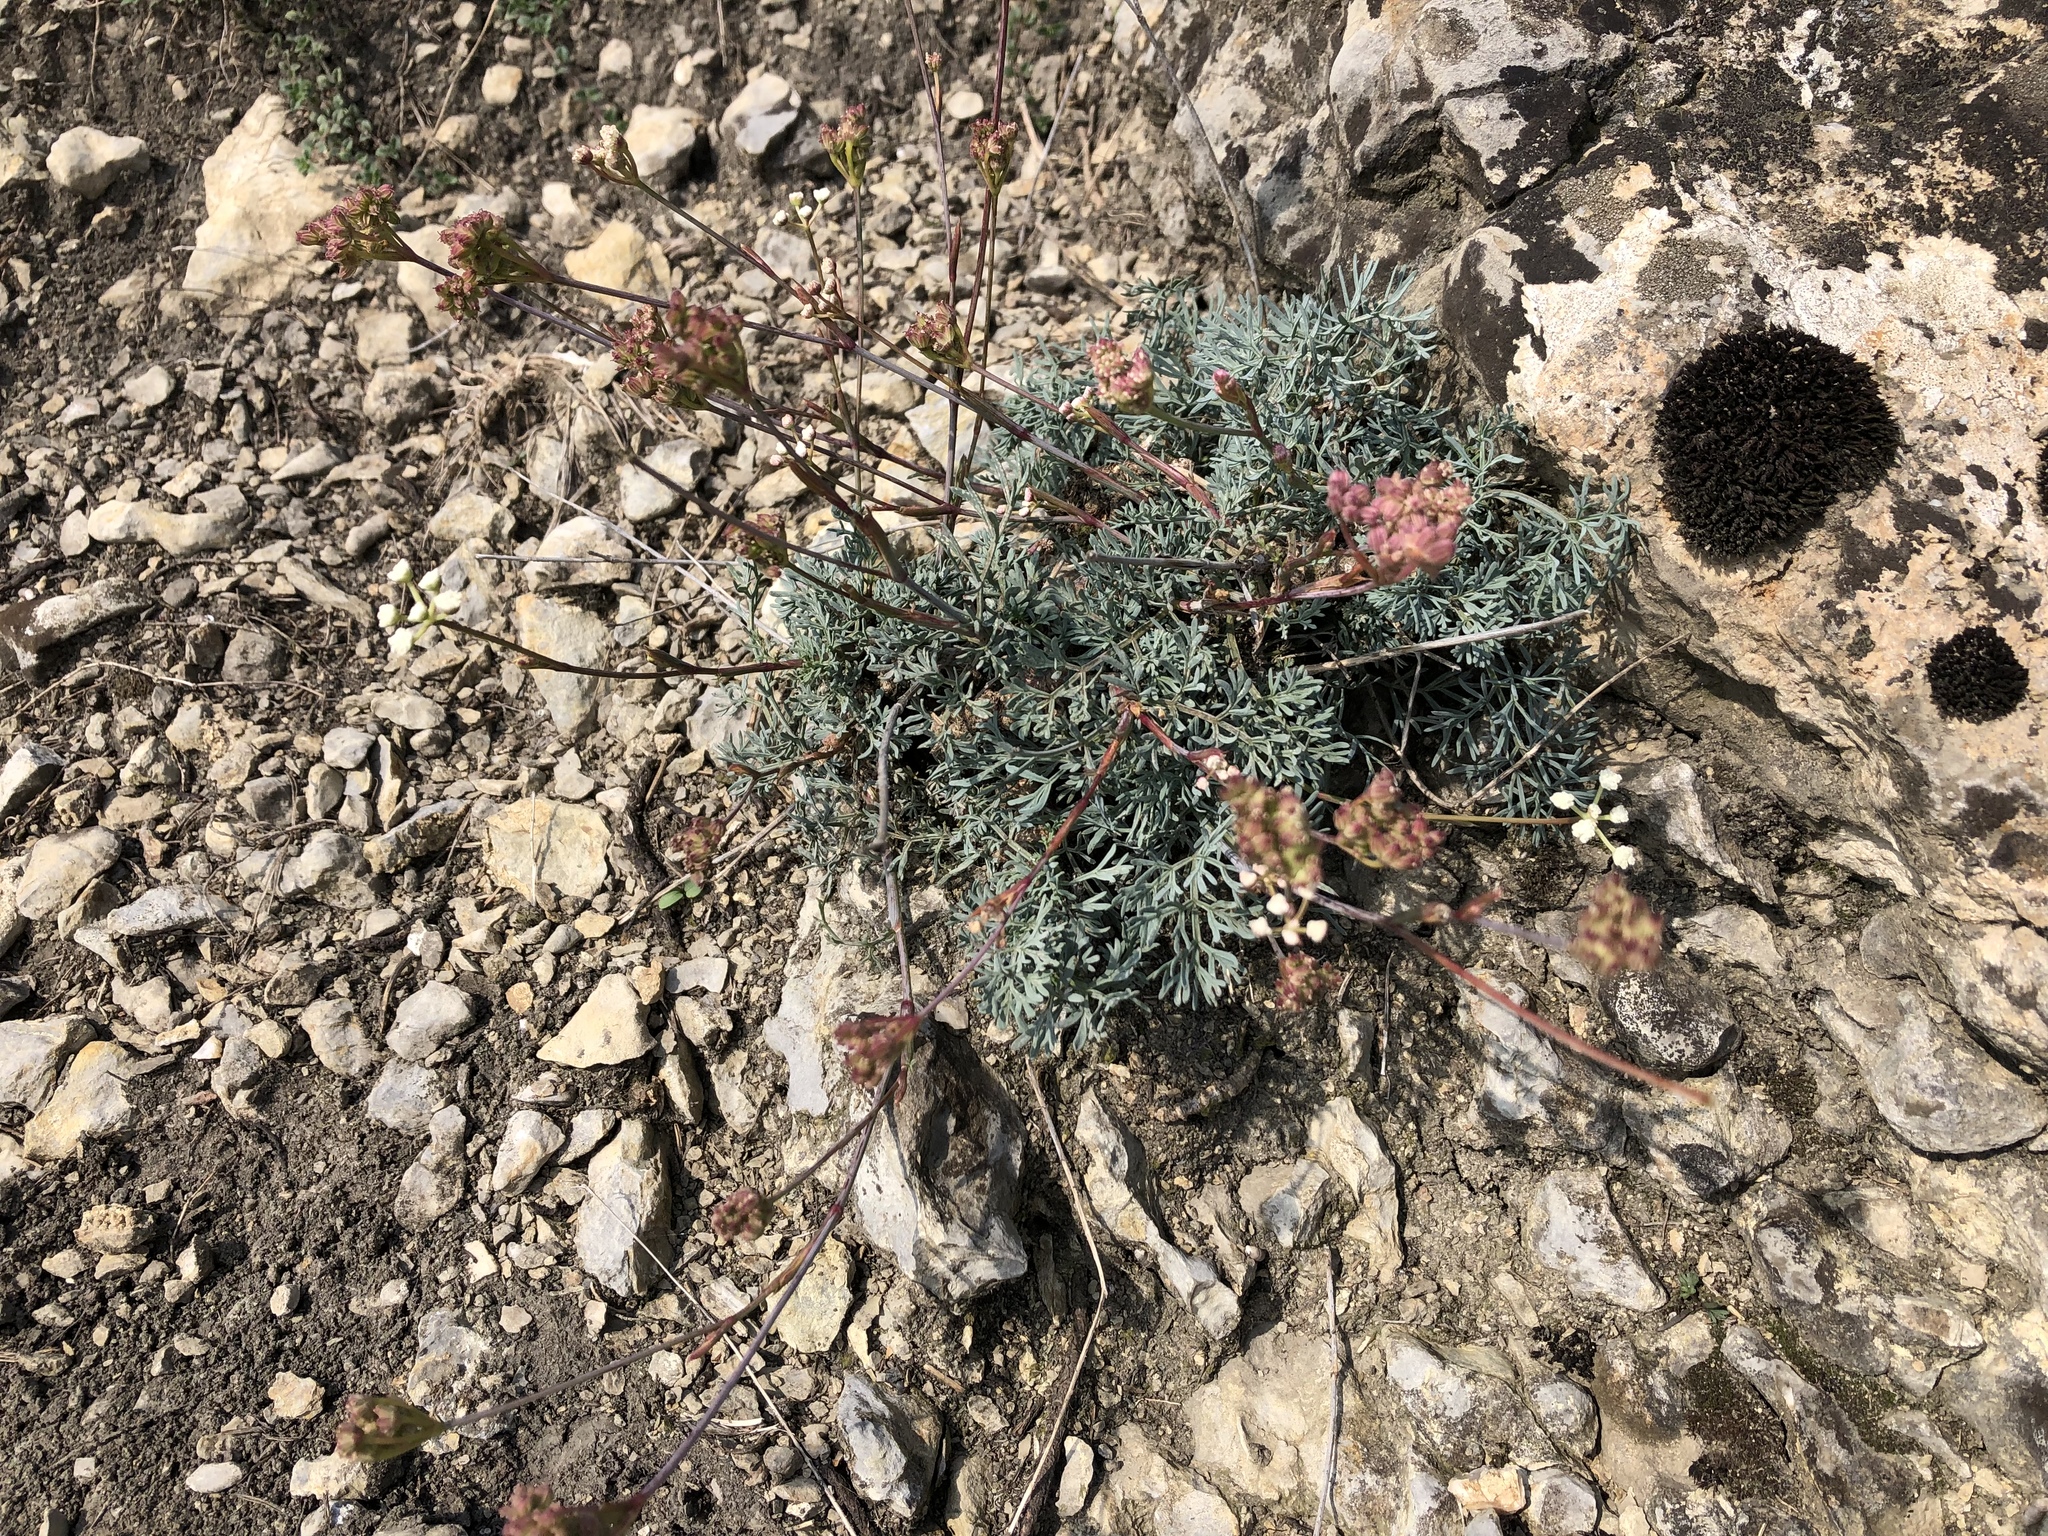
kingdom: Plantae
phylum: Tracheophyta
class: Magnoliopsida
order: Apiales
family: Apiaceae
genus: Hippomarathrum
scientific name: Hippomarathrum
